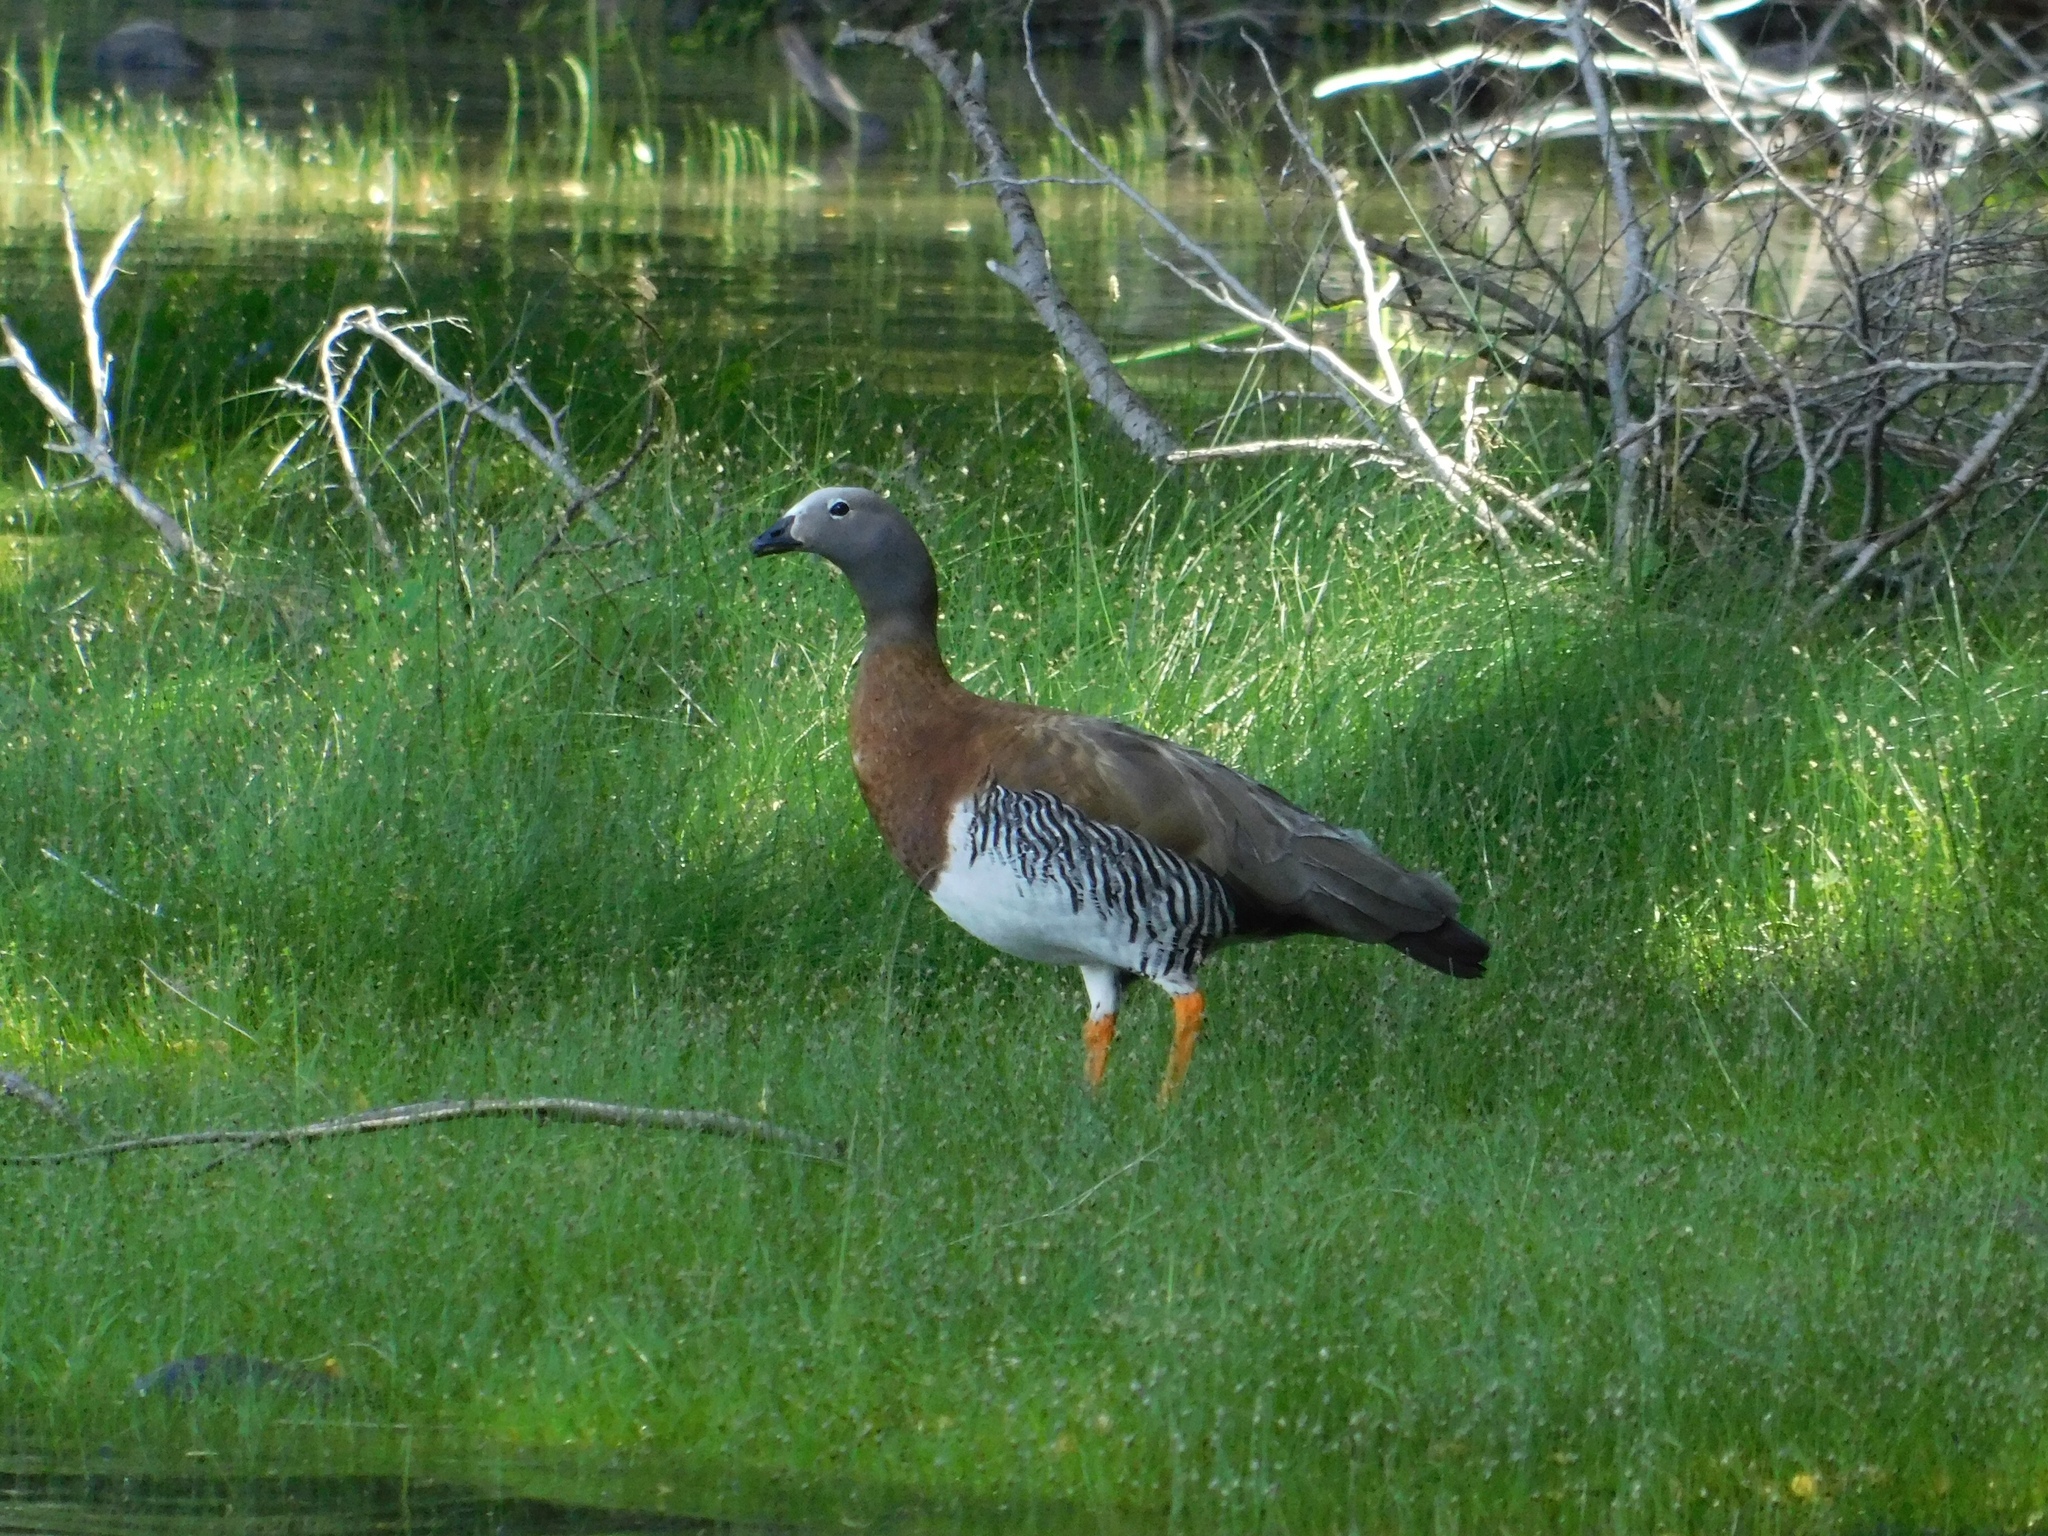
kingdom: Animalia
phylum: Chordata
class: Aves
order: Anseriformes
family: Anatidae
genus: Chloephaga
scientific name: Chloephaga poliocephala
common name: Ashy-headed goose
